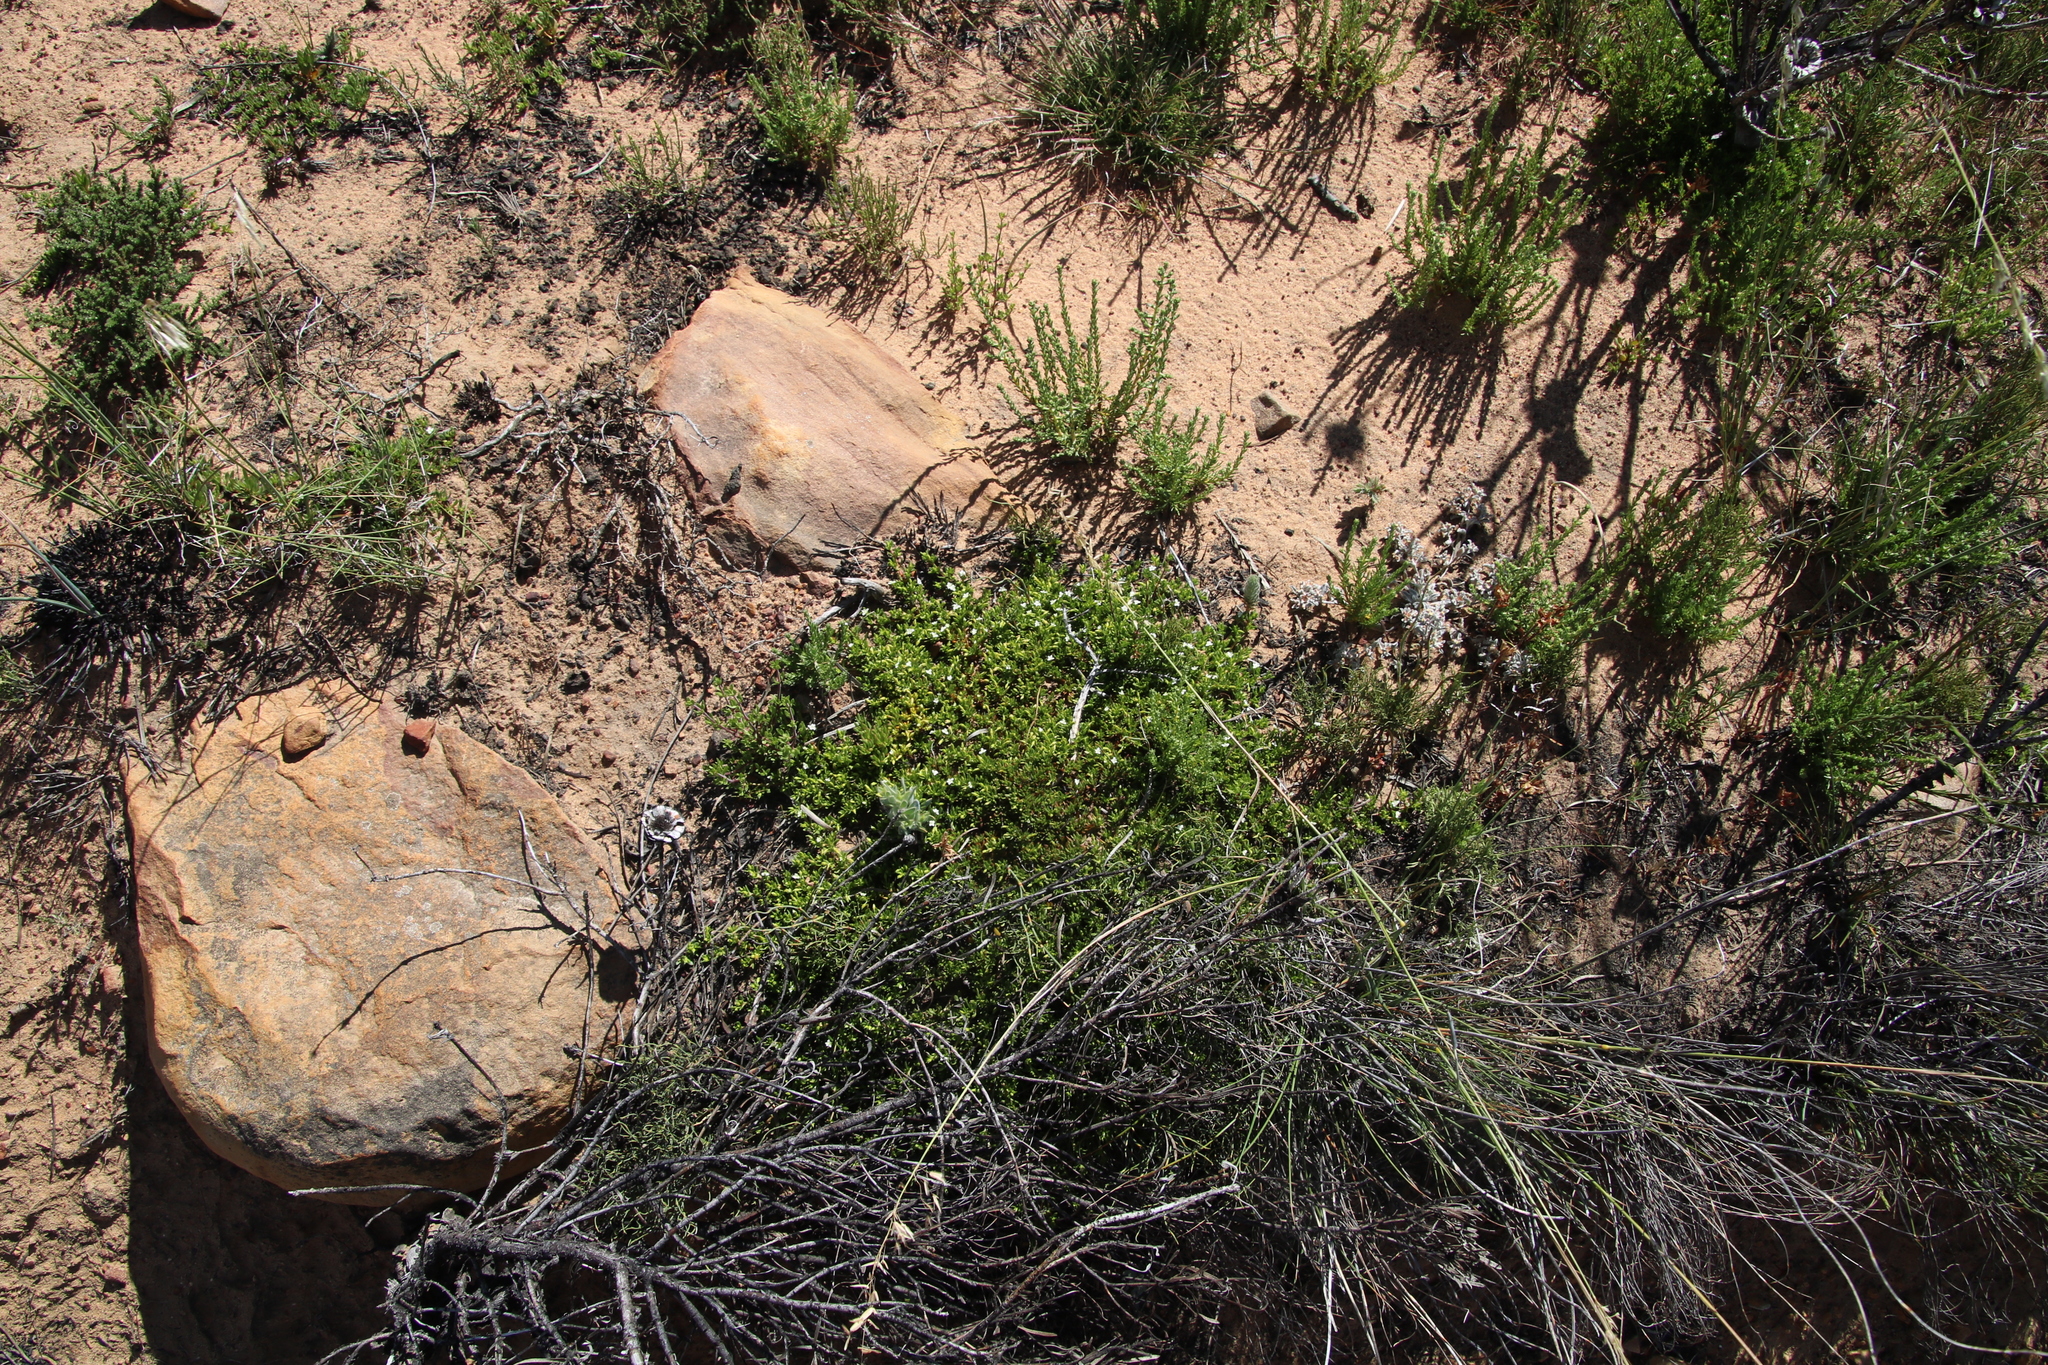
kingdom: Plantae
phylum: Tracheophyta
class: Magnoliopsida
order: Caryophyllales
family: Aizoaceae
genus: Acrosanthes
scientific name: Acrosanthes humifusa
